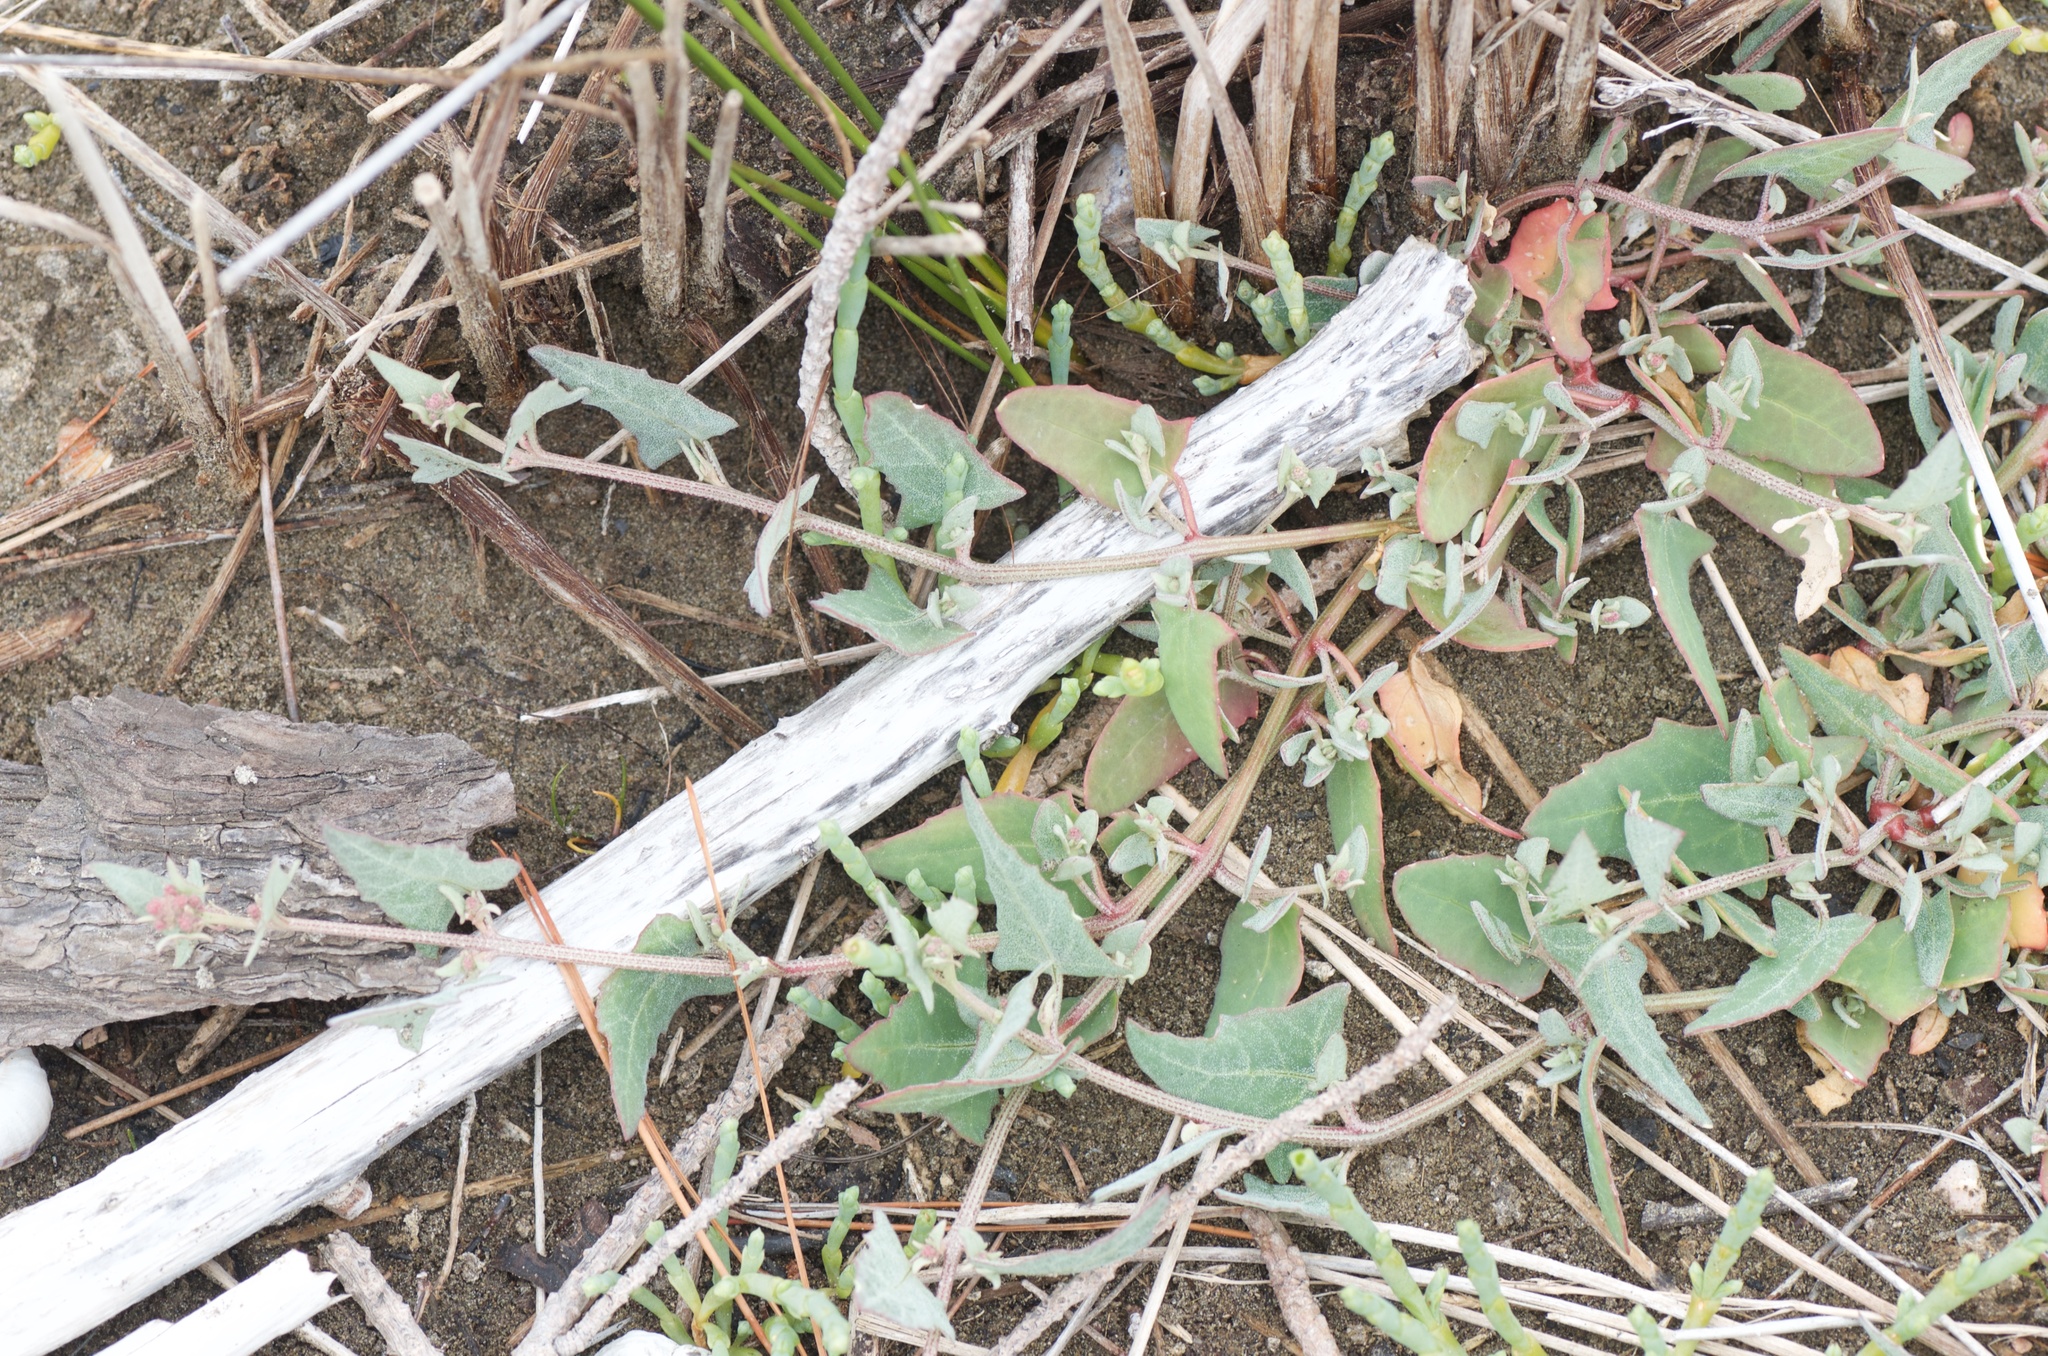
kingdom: Plantae
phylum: Tracheophyta
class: Magnoliopsida
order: Caryophyllales
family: Amaranthaceae
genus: Atriplex
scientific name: Atriplex prostrata
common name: Spear-leaved orache
